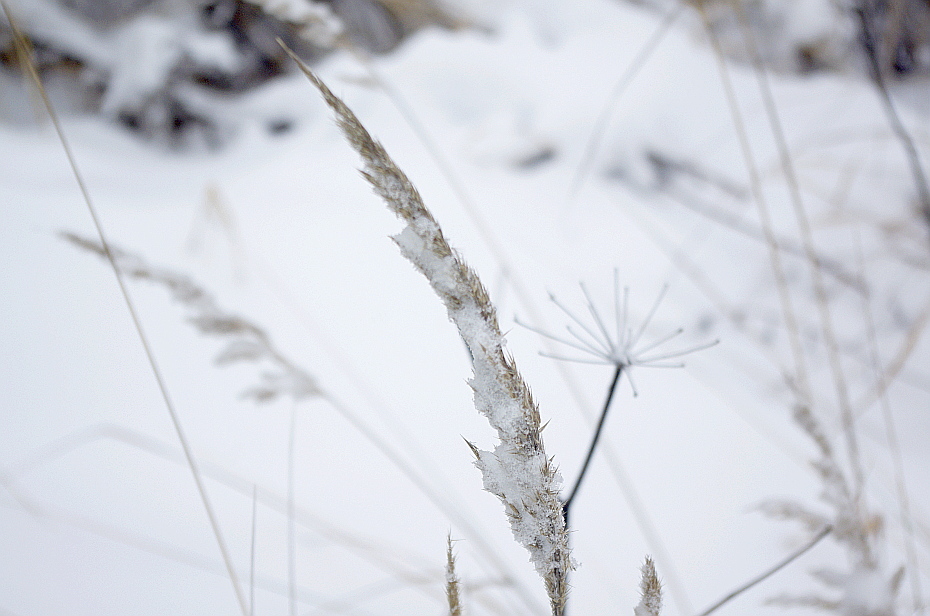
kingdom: Plantae
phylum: Tracheophyta
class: Liliopsida
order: Poales
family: Poaceae
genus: Calamagrostis
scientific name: Calamagrostis epigejos
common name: Wood small-reed
